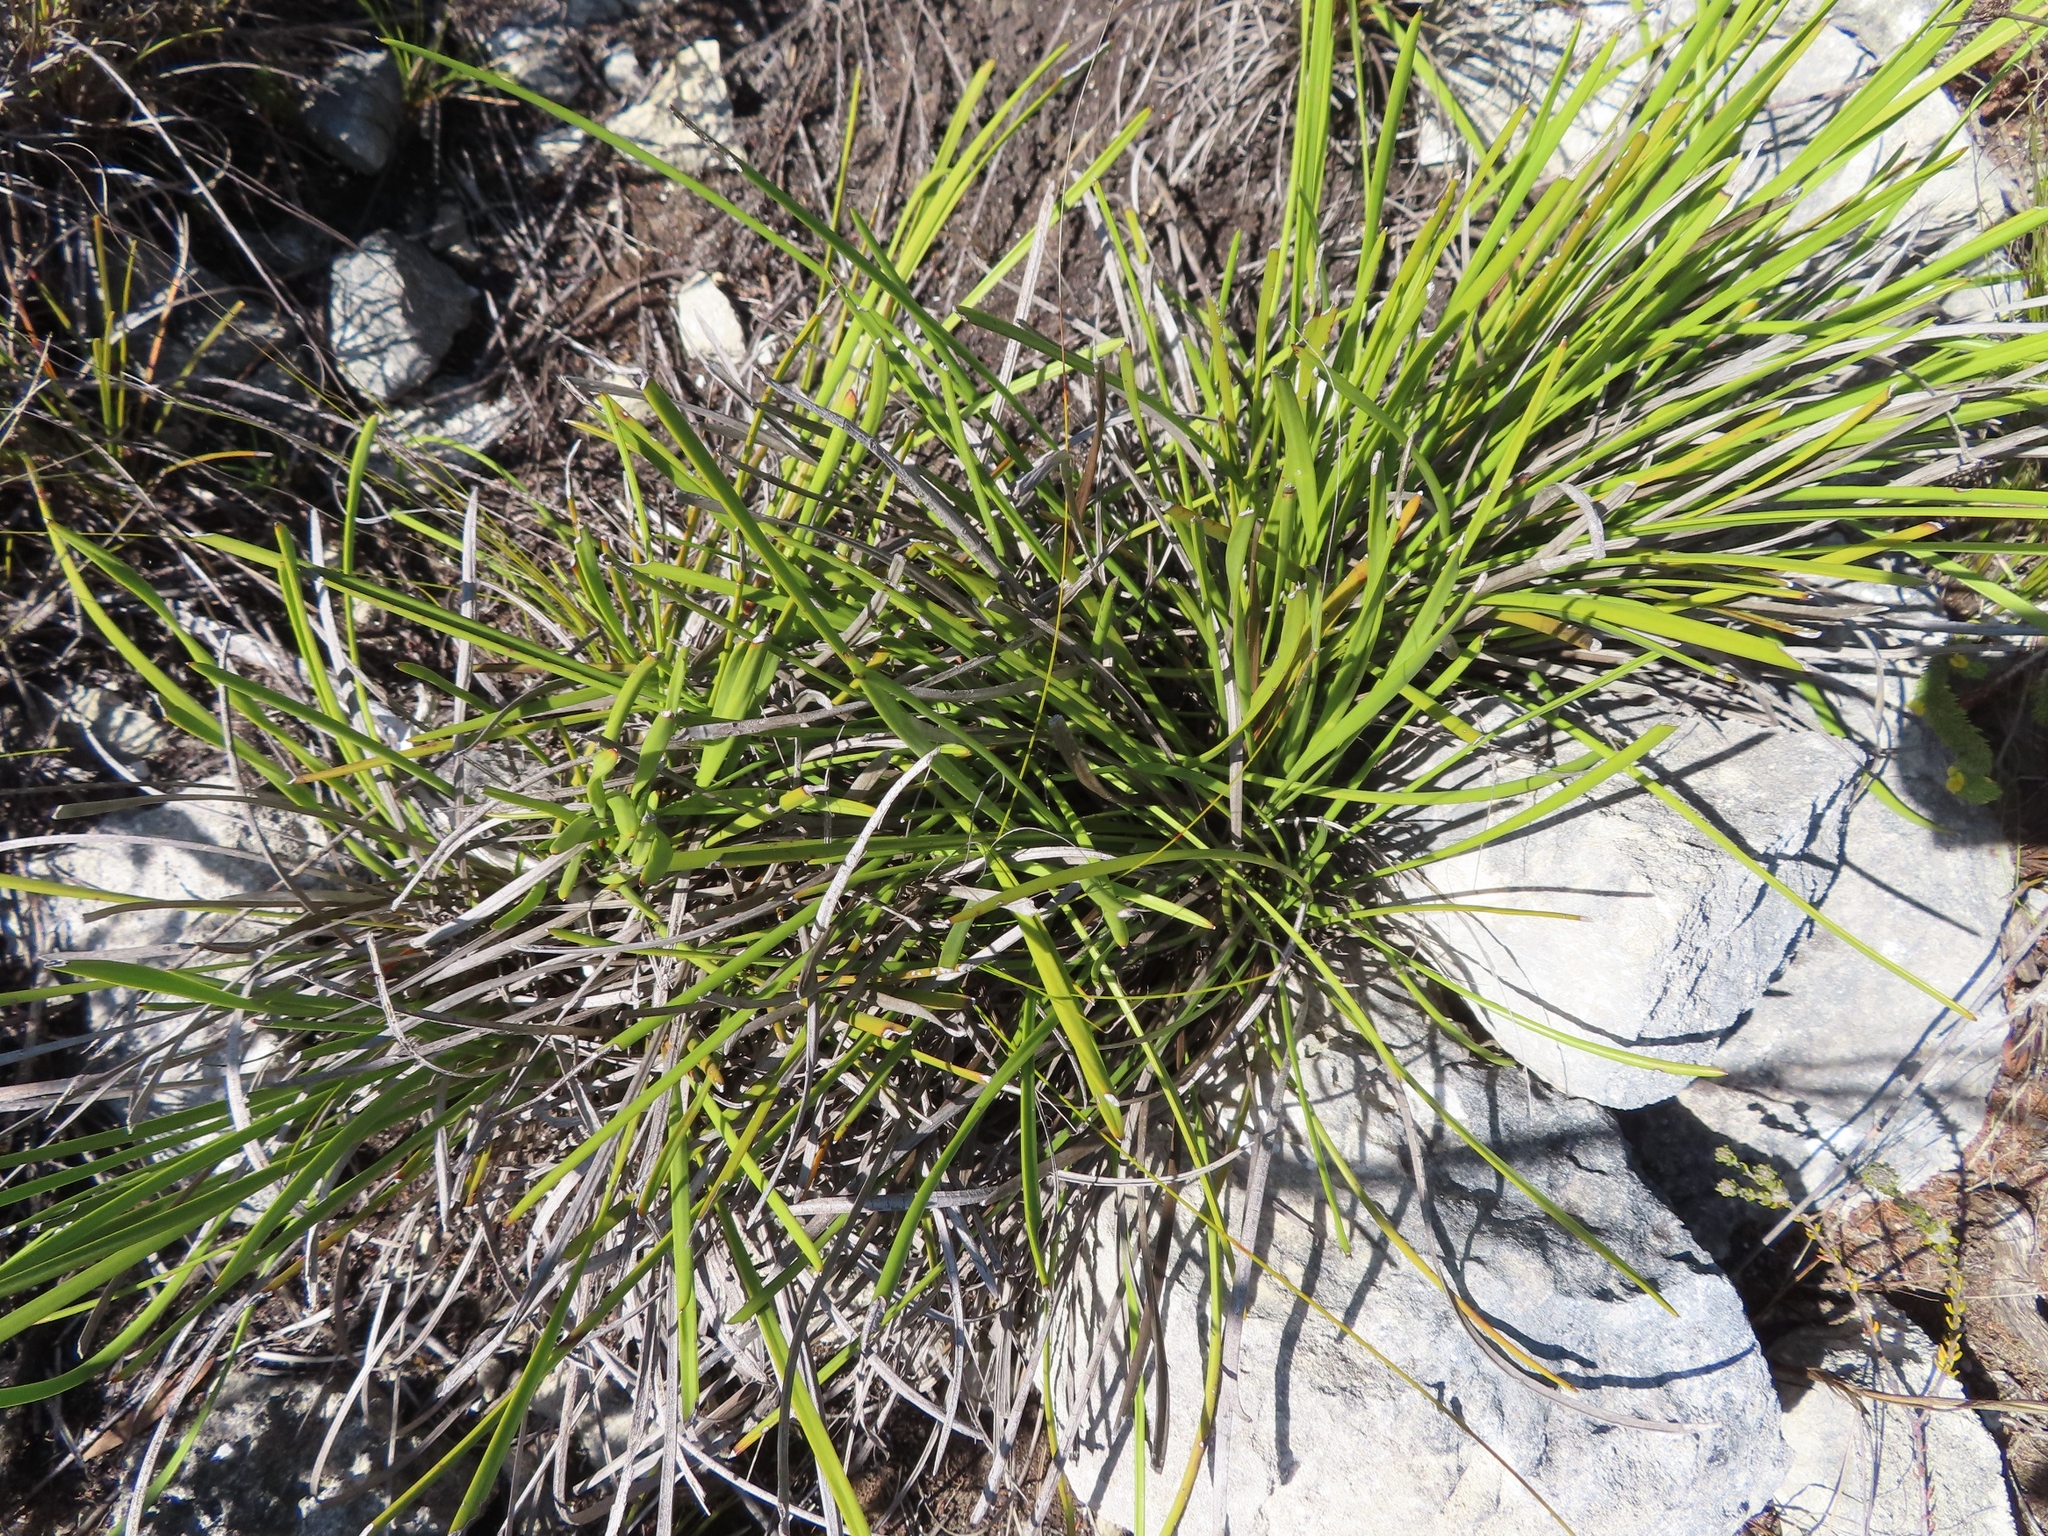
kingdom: Plantae
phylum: Tracheophyta
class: Liliopsida
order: Asparagales
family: Lanariaceae
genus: Lanaria
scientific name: Lanaria lanata
